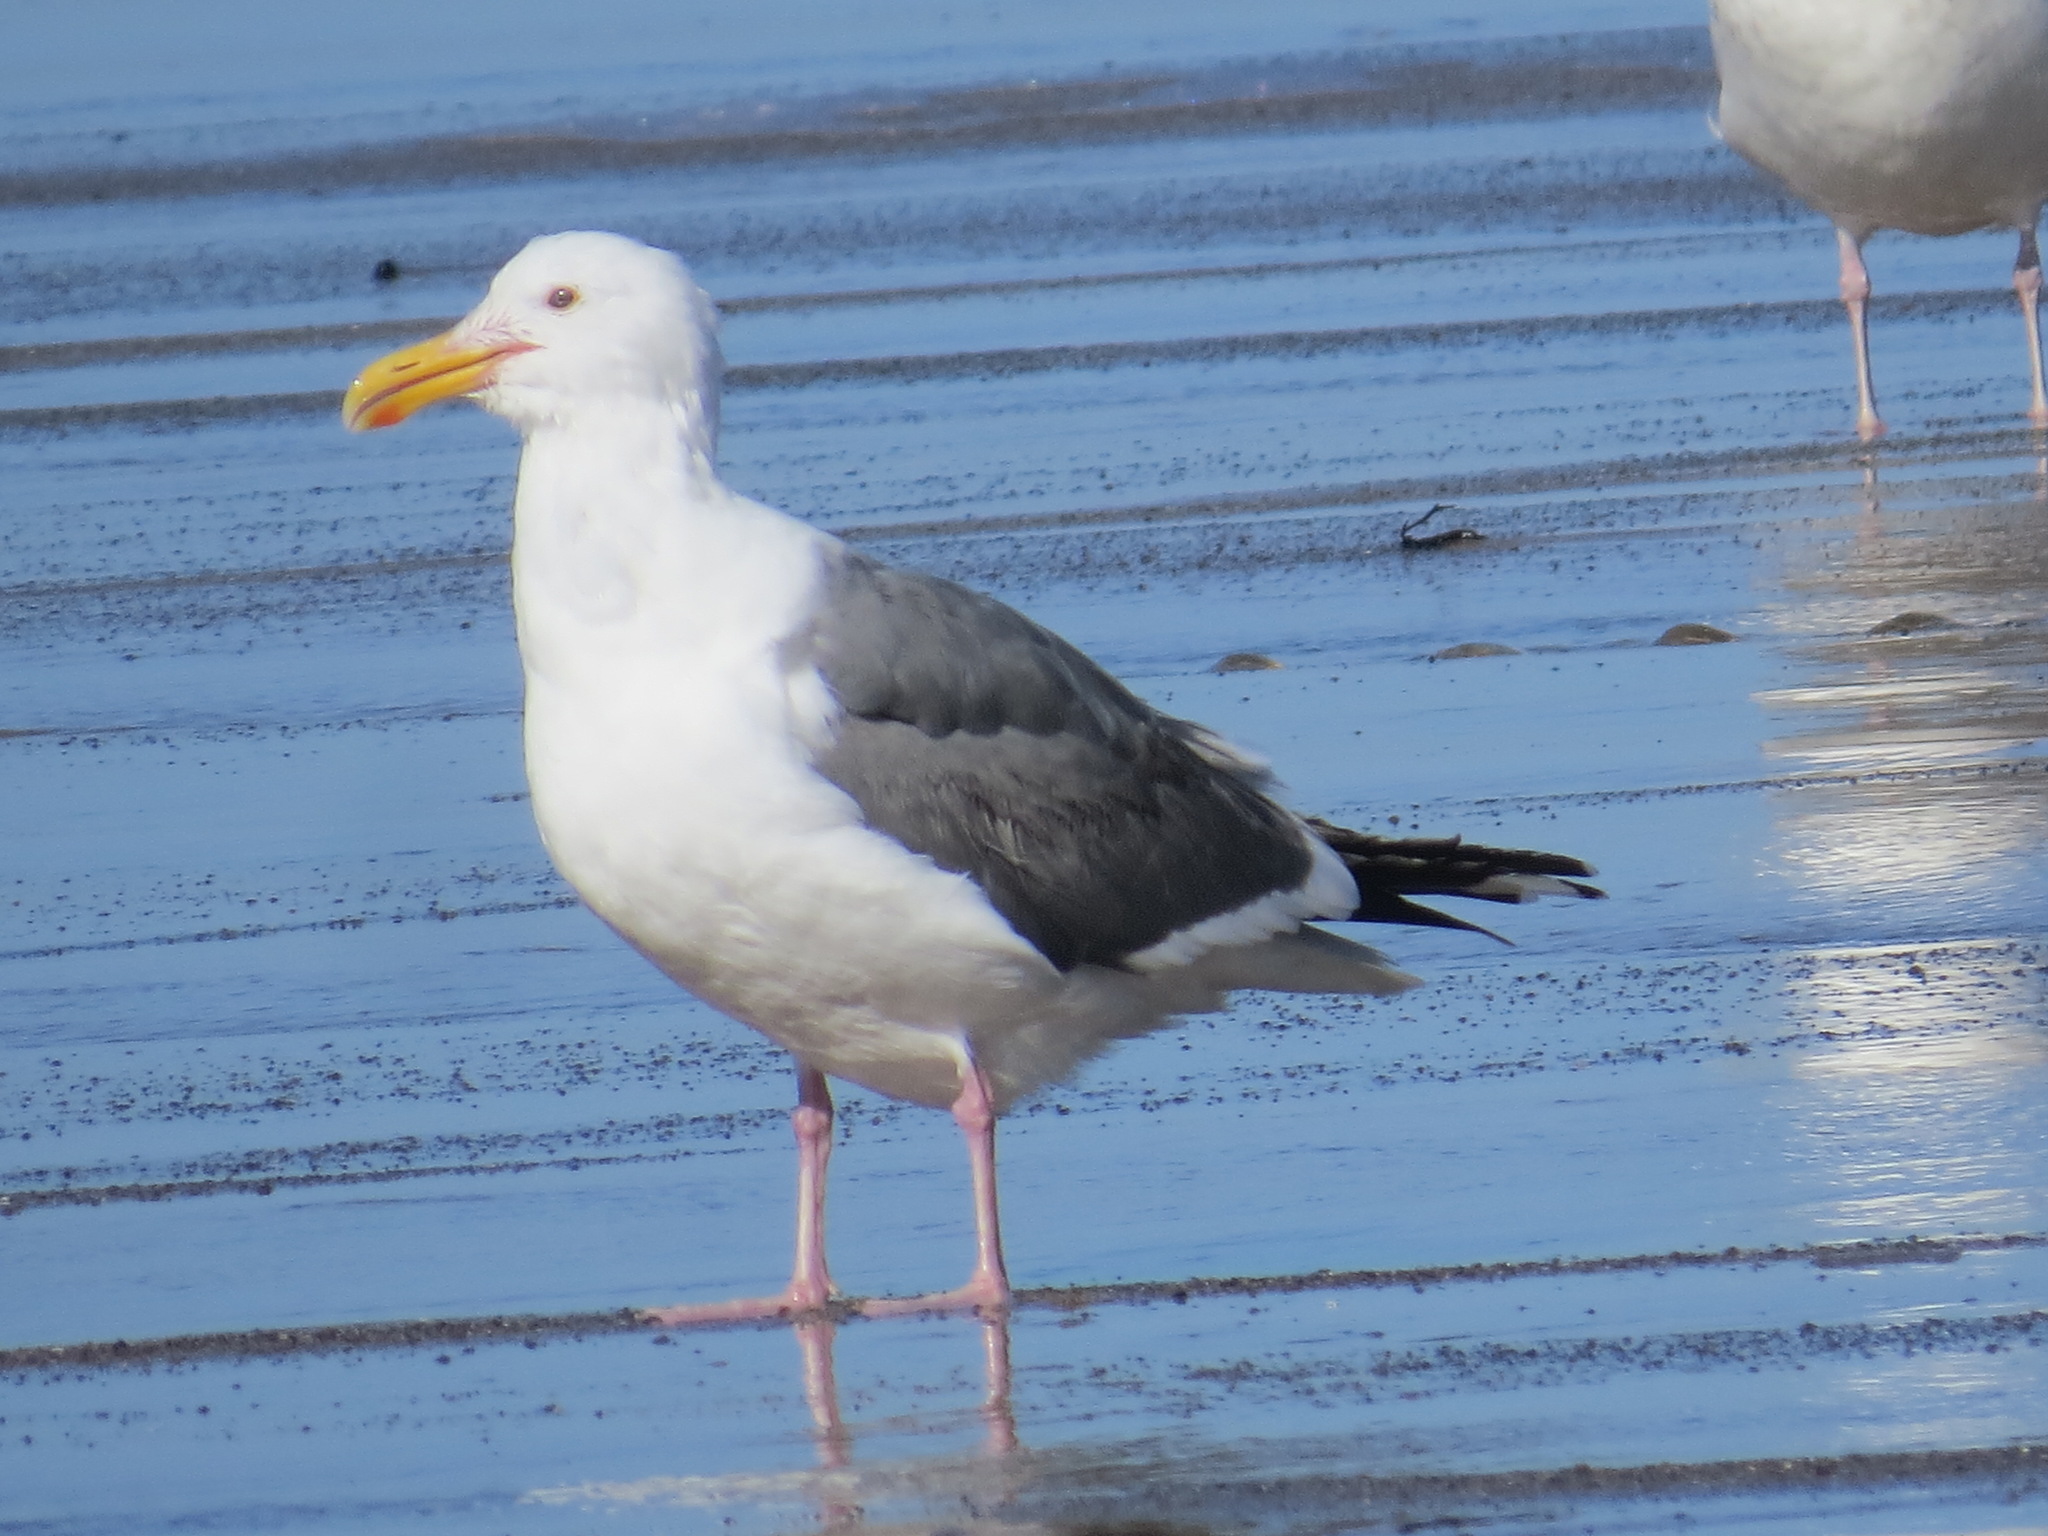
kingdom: Animalia
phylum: Chordata
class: Aves
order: Charadriiformes
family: Laridae
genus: Larus
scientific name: Larus occidentalis
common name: Western gull
